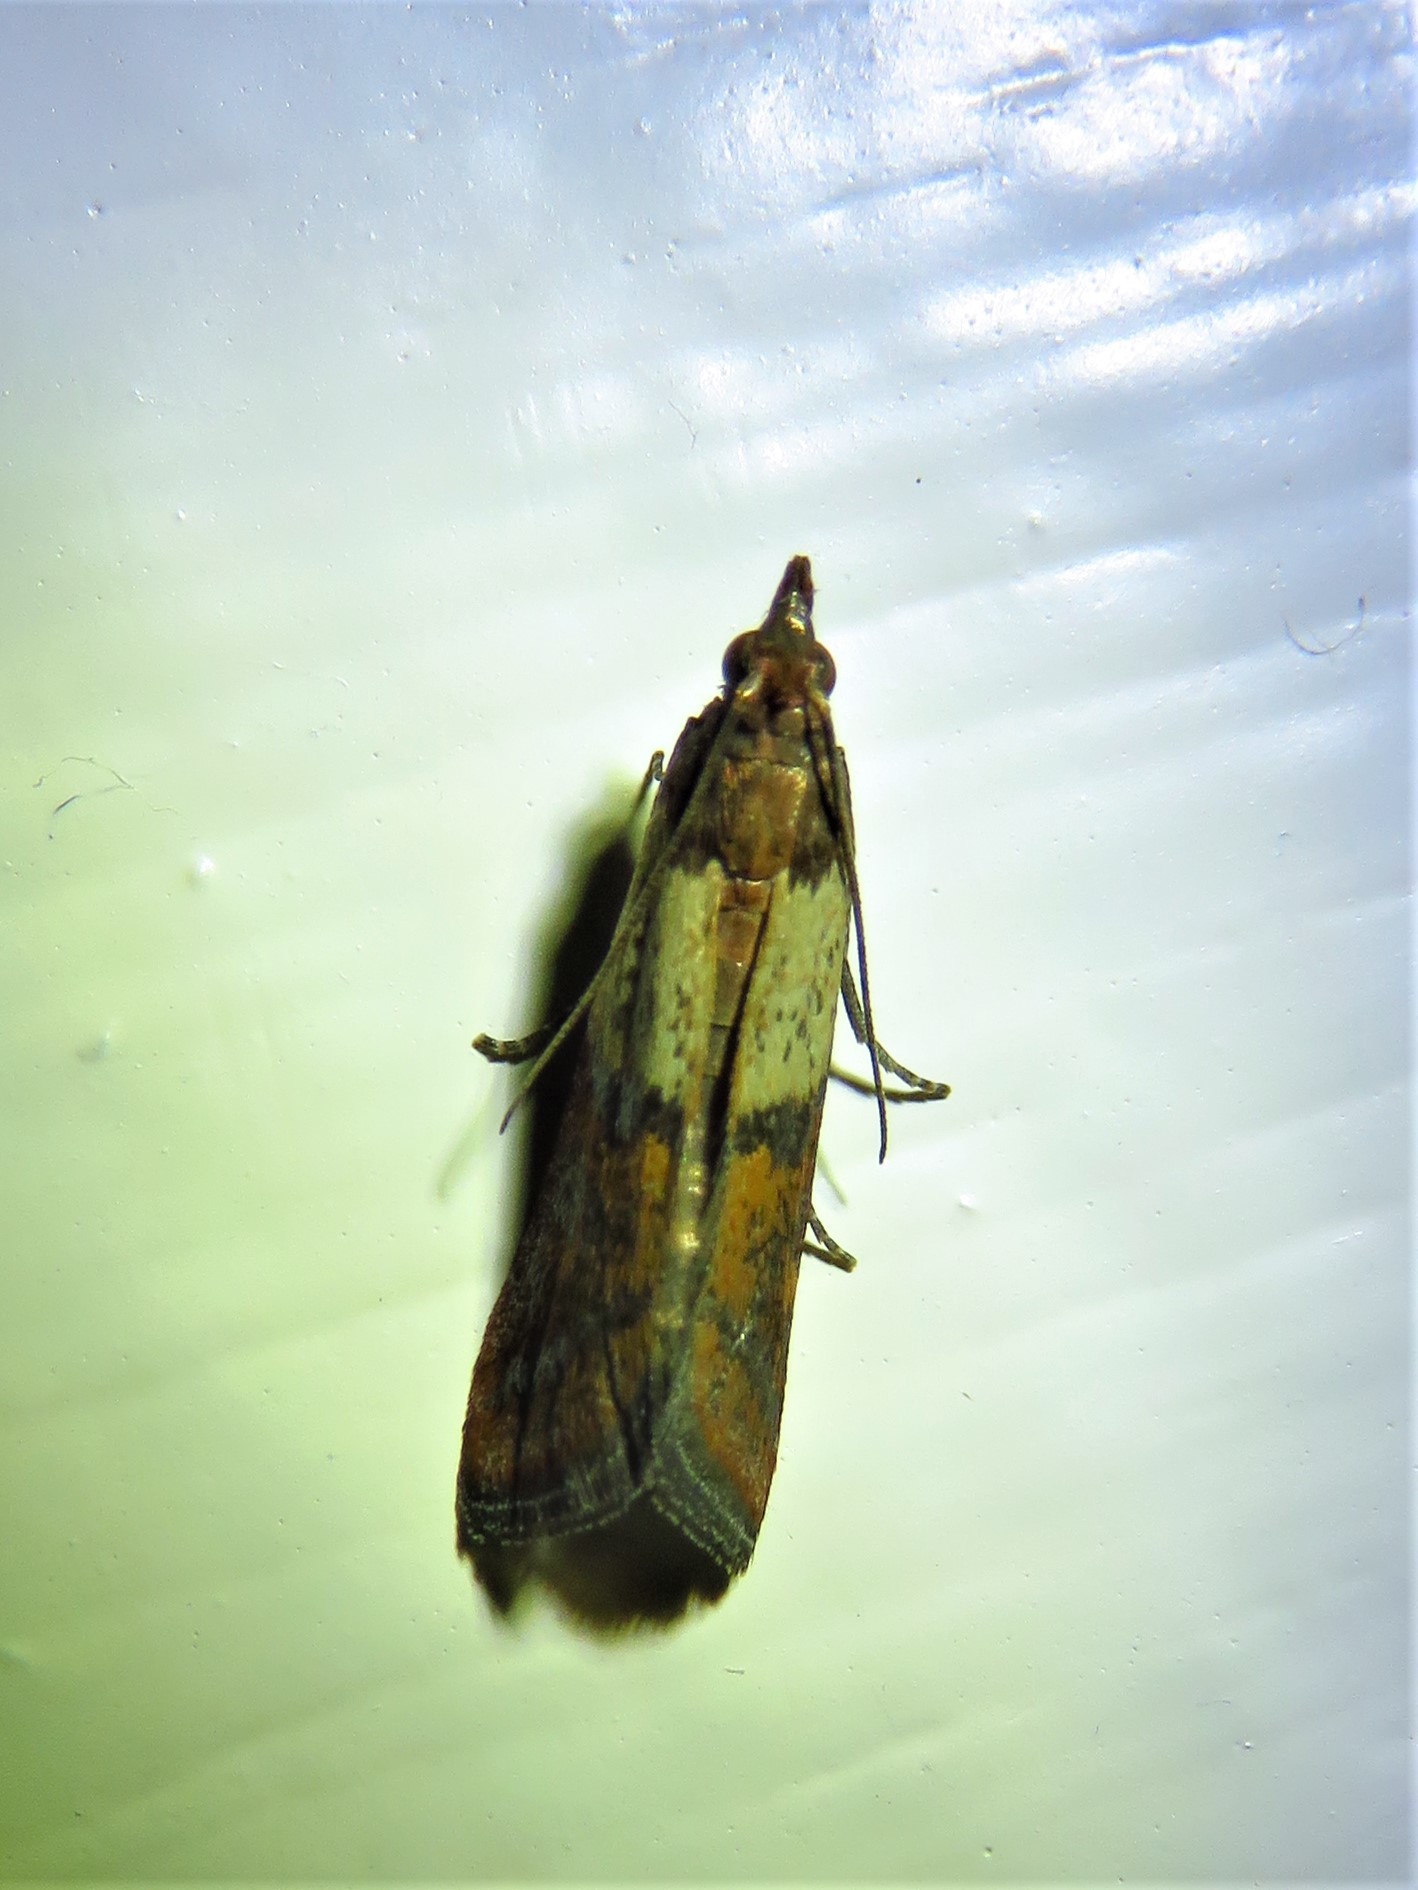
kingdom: Animalia
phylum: Arthropoda
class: Insecta
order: Lepidoptera
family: Pyralidae
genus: Plodia
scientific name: Plodia interpunctella
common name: Indian meal moth
